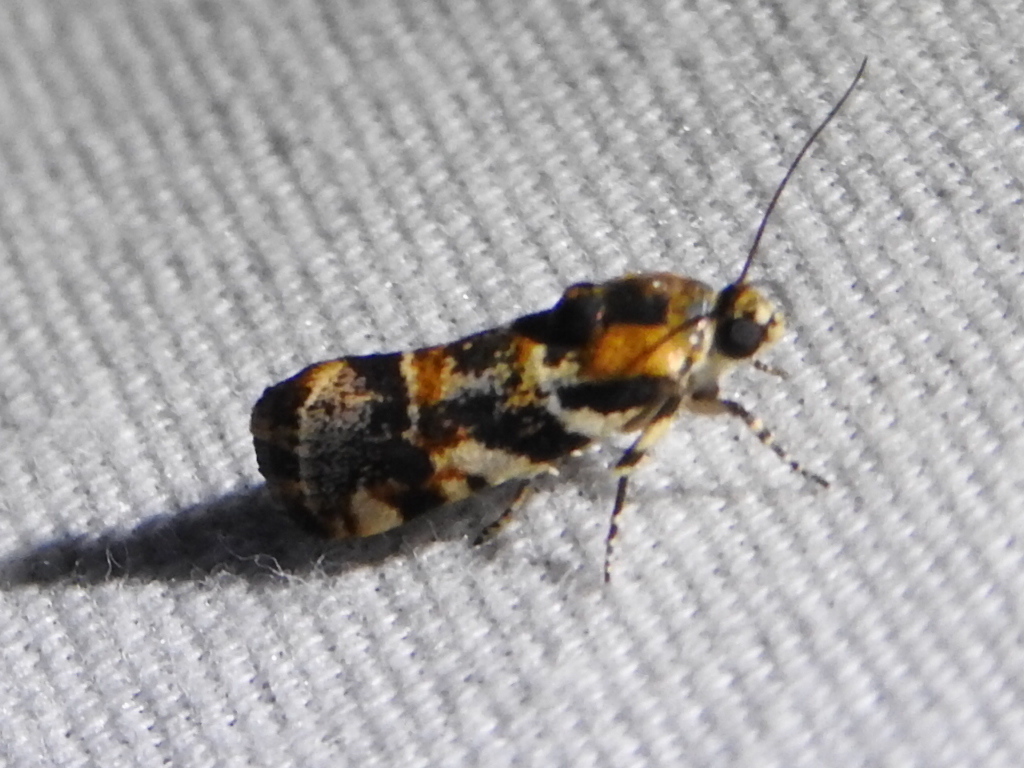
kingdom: Animalia
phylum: Arthropoda
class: Insecta
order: Lepidoptera
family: Noctuidae
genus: Spragueia
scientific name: Spragueia jaguaralis
